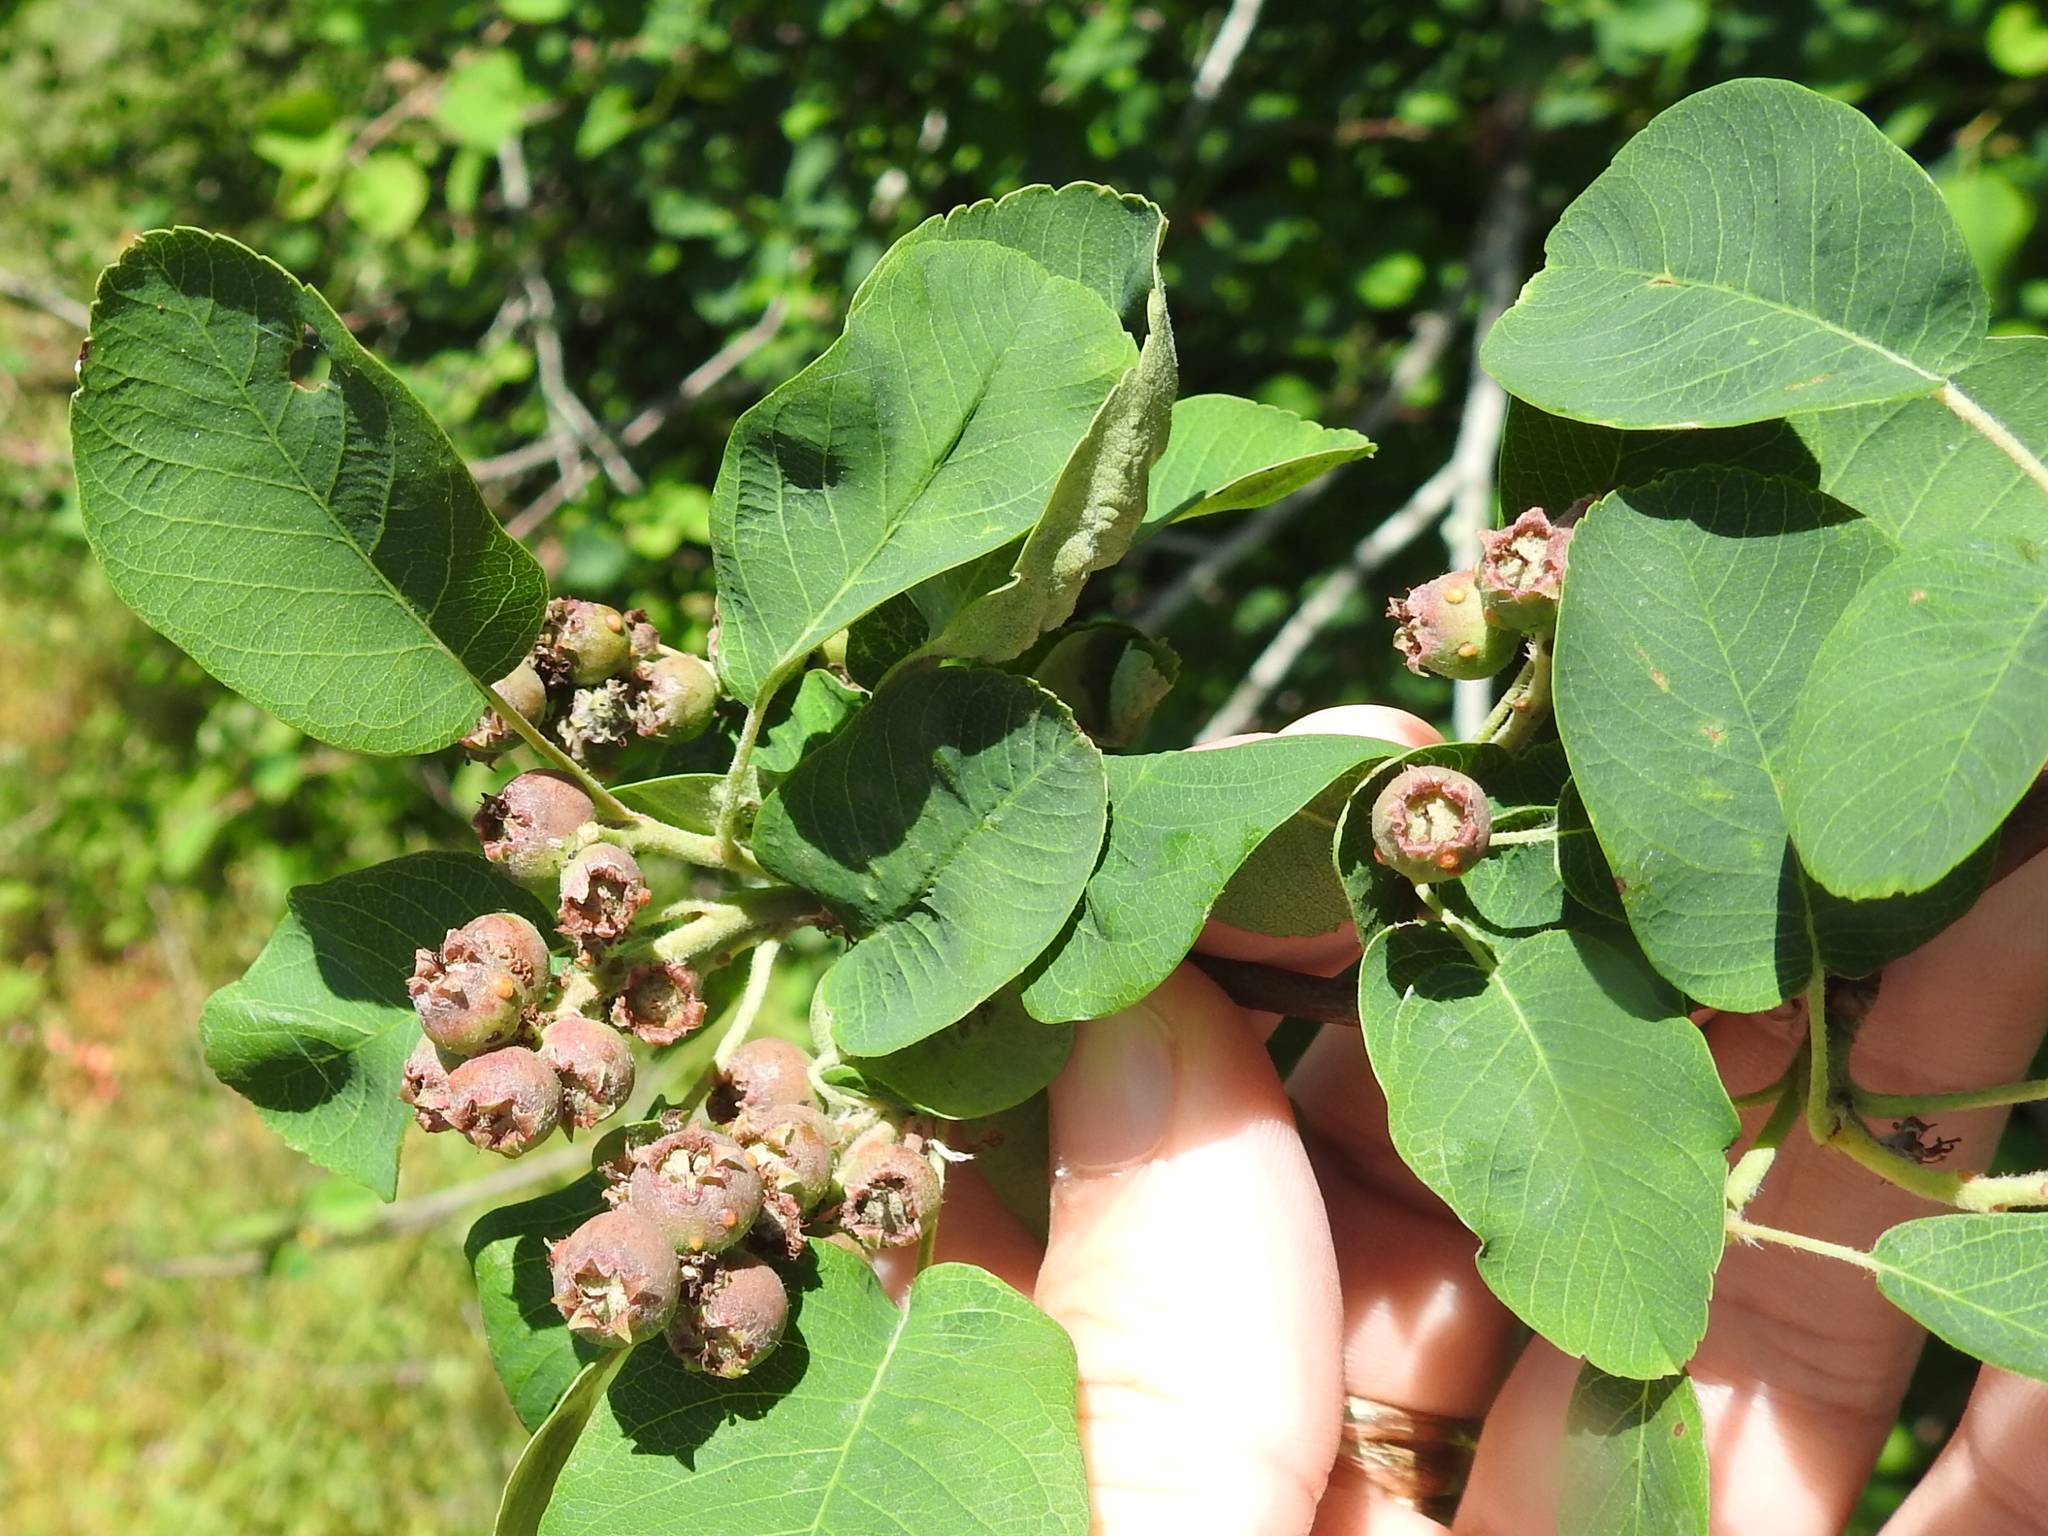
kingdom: Plantae
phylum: Tracheophyta
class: Magnoliopsida
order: Rosales
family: Rosaceae
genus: Amelanchier
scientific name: Amelanchier alnifolia
